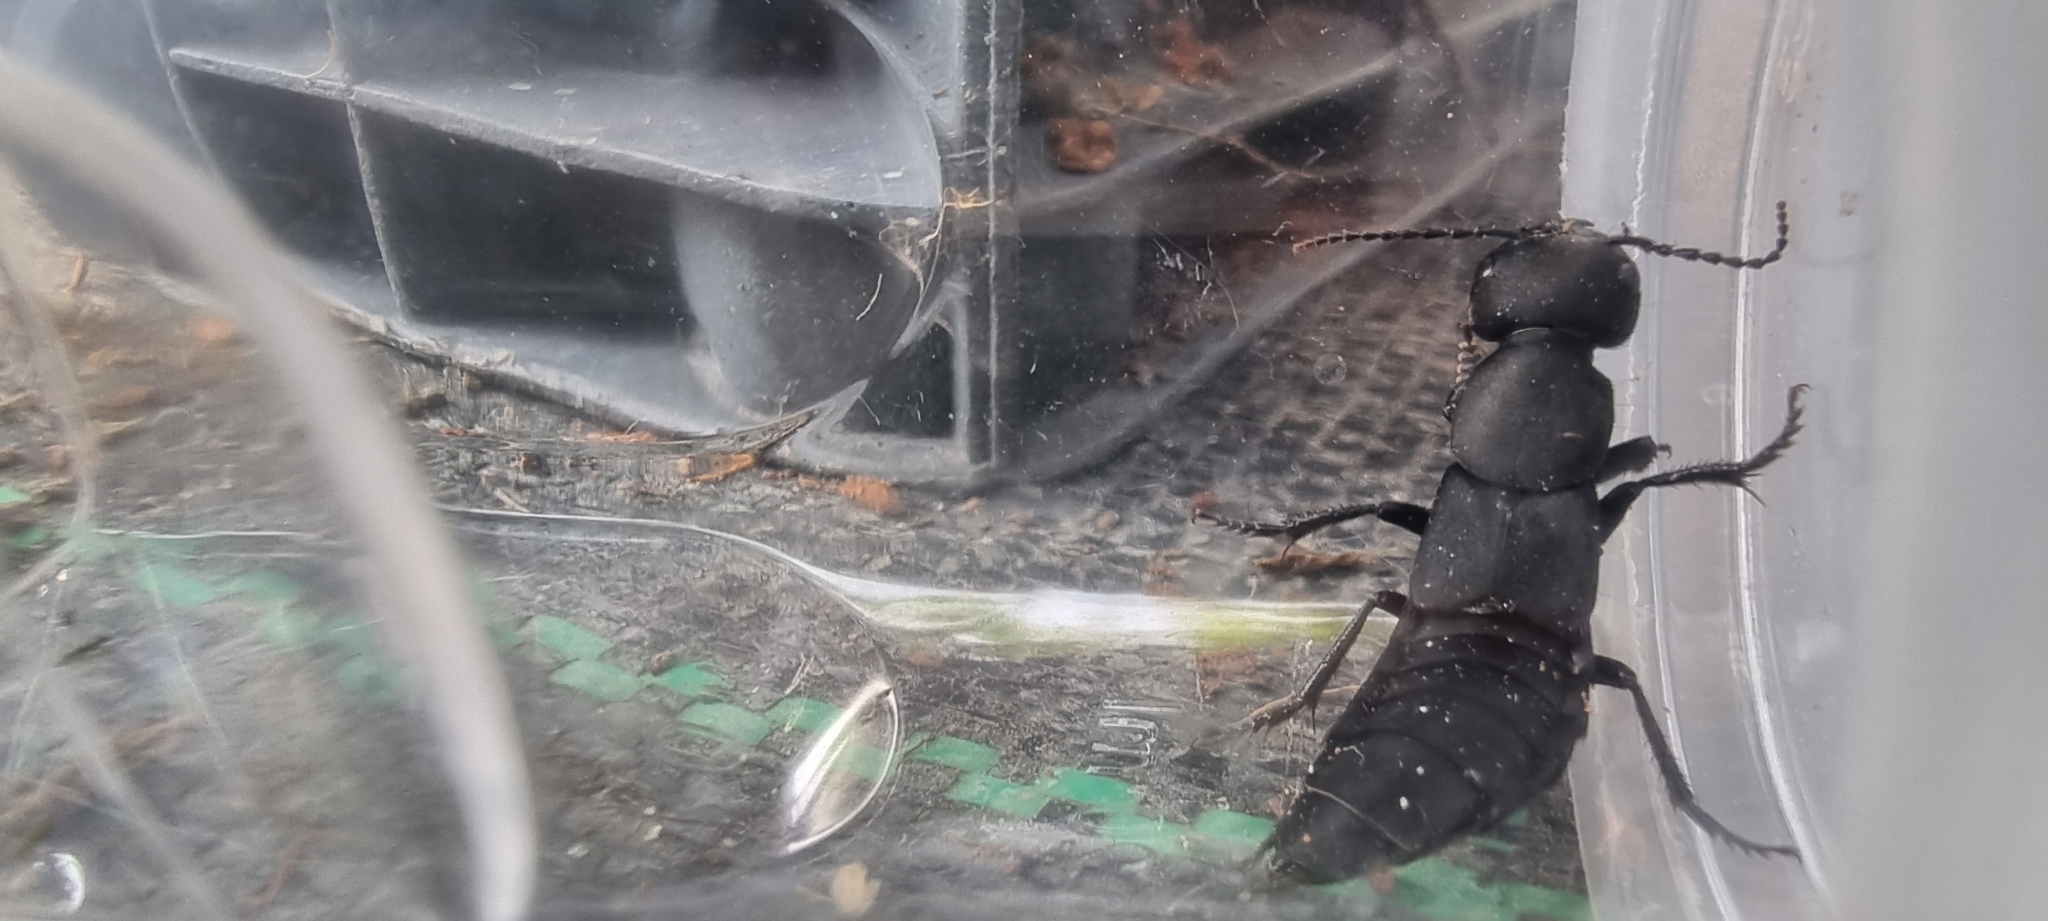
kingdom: Animalia
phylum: Arthropoda
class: Insecta
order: Coleoptera
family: Staphylinidae
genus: Ocypus
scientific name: Ocypus olens
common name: Devil's coach-horse
